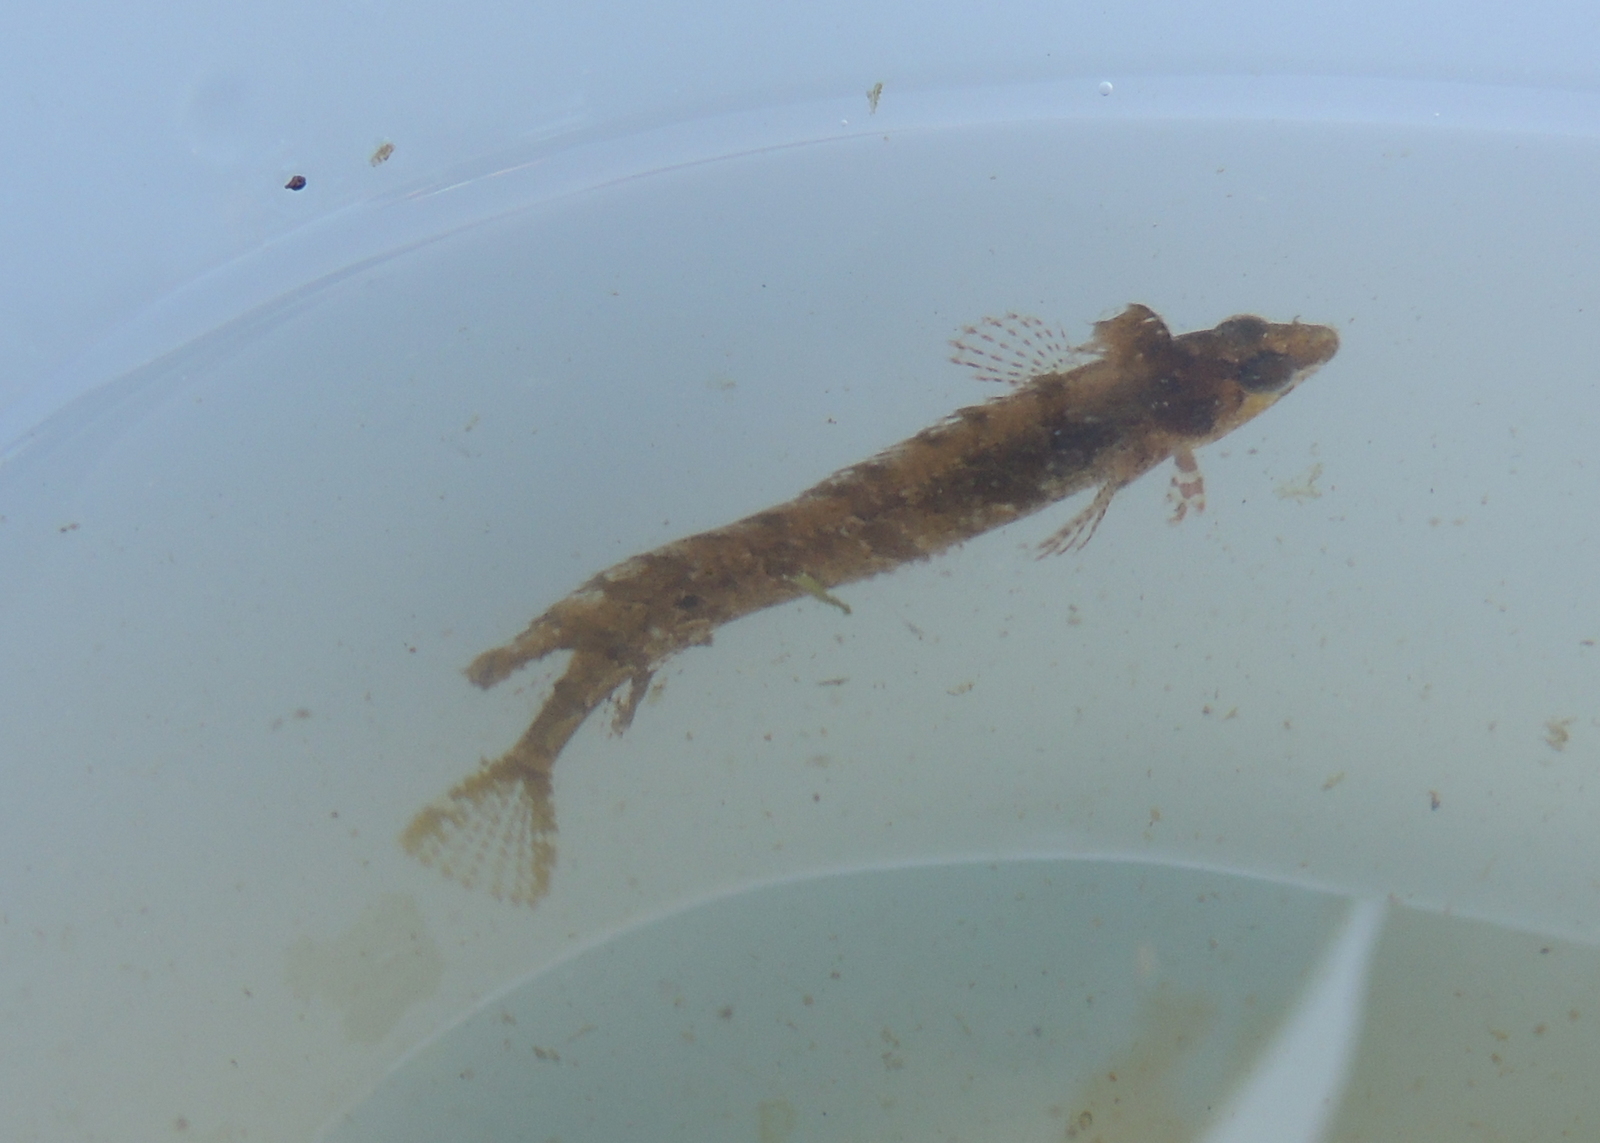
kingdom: Animalia
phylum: Chordata
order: Perciformes
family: Clinidae
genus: Gibbonsia
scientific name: Gibbonsia elegans
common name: Spotted kelpfish
